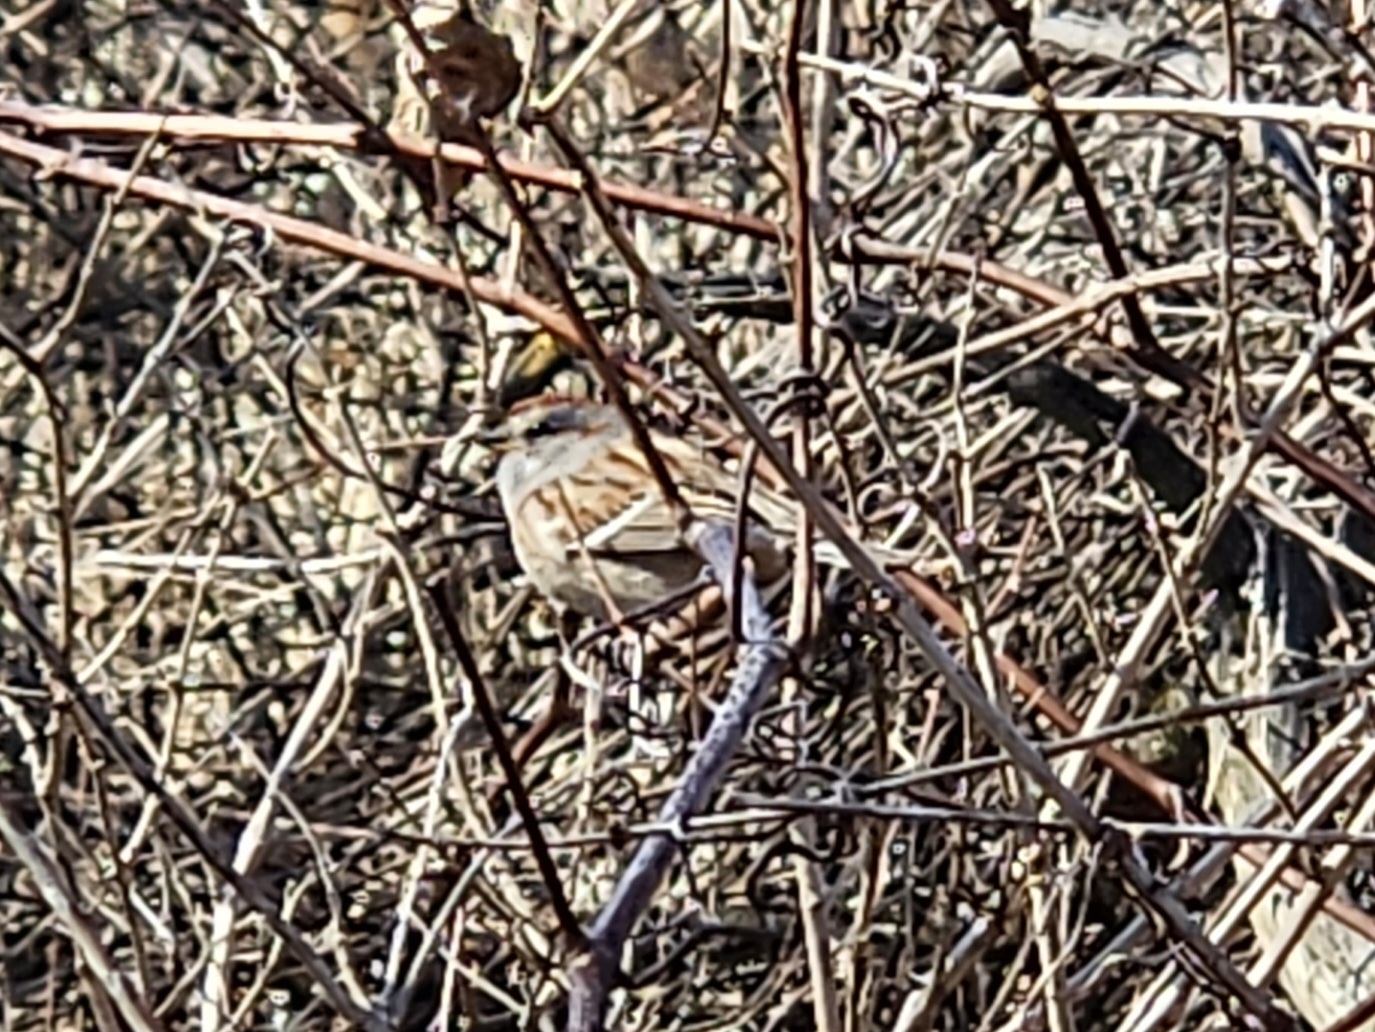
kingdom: Animalia
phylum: Chordata
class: Aves
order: Passeriformes
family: Passerellidae
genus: Spizelloides
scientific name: Spizelloides arborea
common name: American tree sparrow
